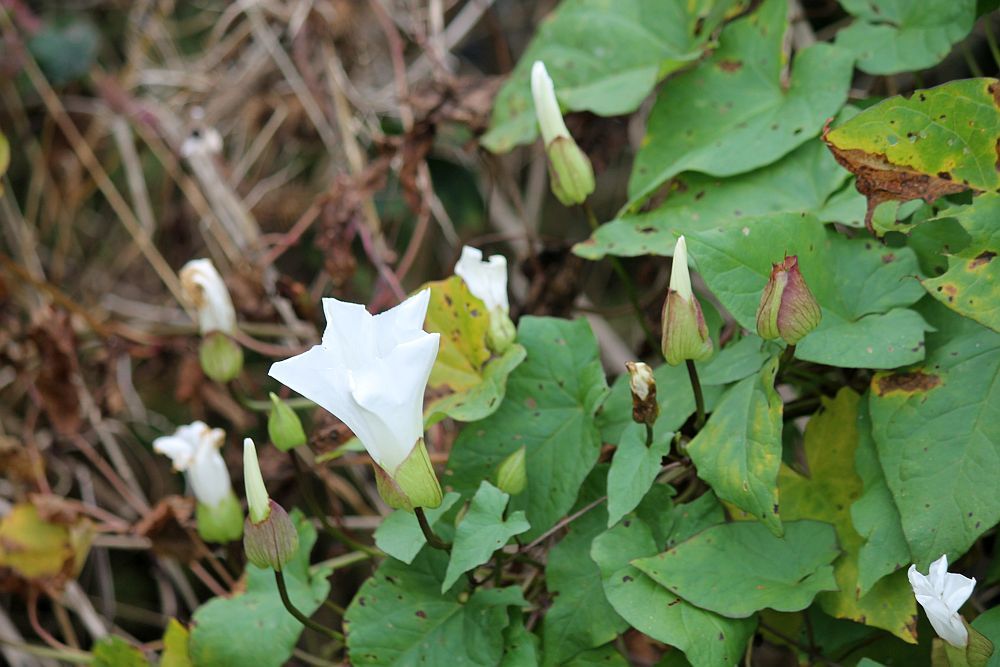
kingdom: Plantae
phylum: Tracheophyta
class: Magnoliopsida
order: Solanales
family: Convolvulaceae
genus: Calystegia
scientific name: Calystegia sepium
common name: Hedge bindweed
